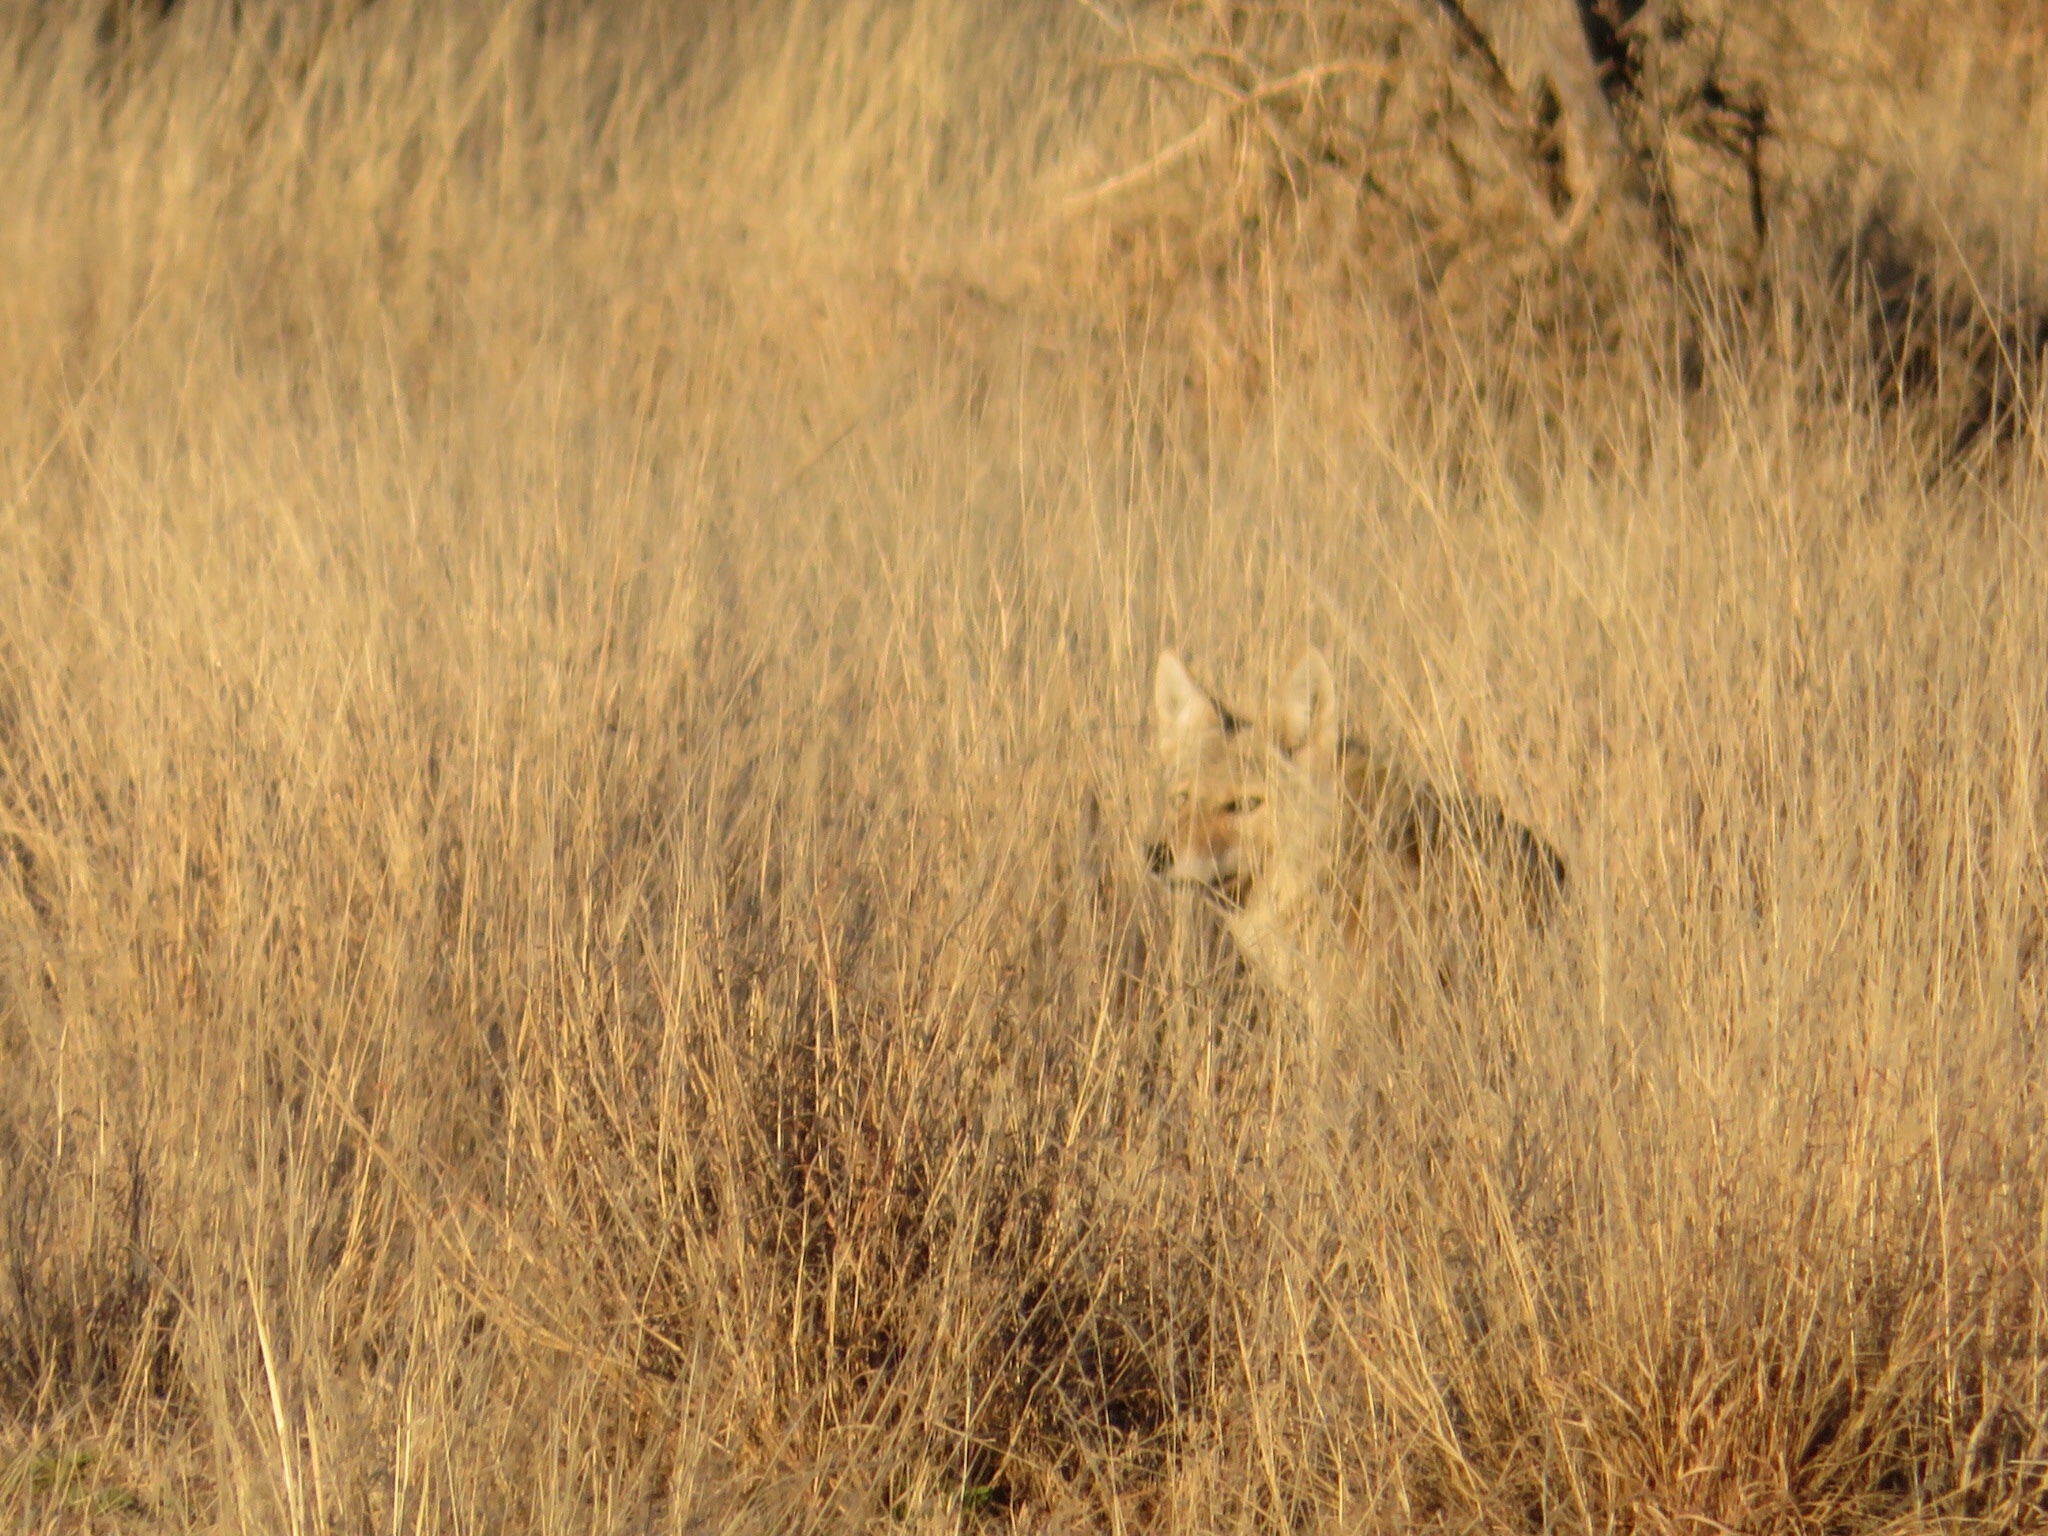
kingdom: Animalia
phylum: Chordata
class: Mammalia
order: Carnivora
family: Canidae
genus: Canis
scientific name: Canis latrans
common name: Coyote
